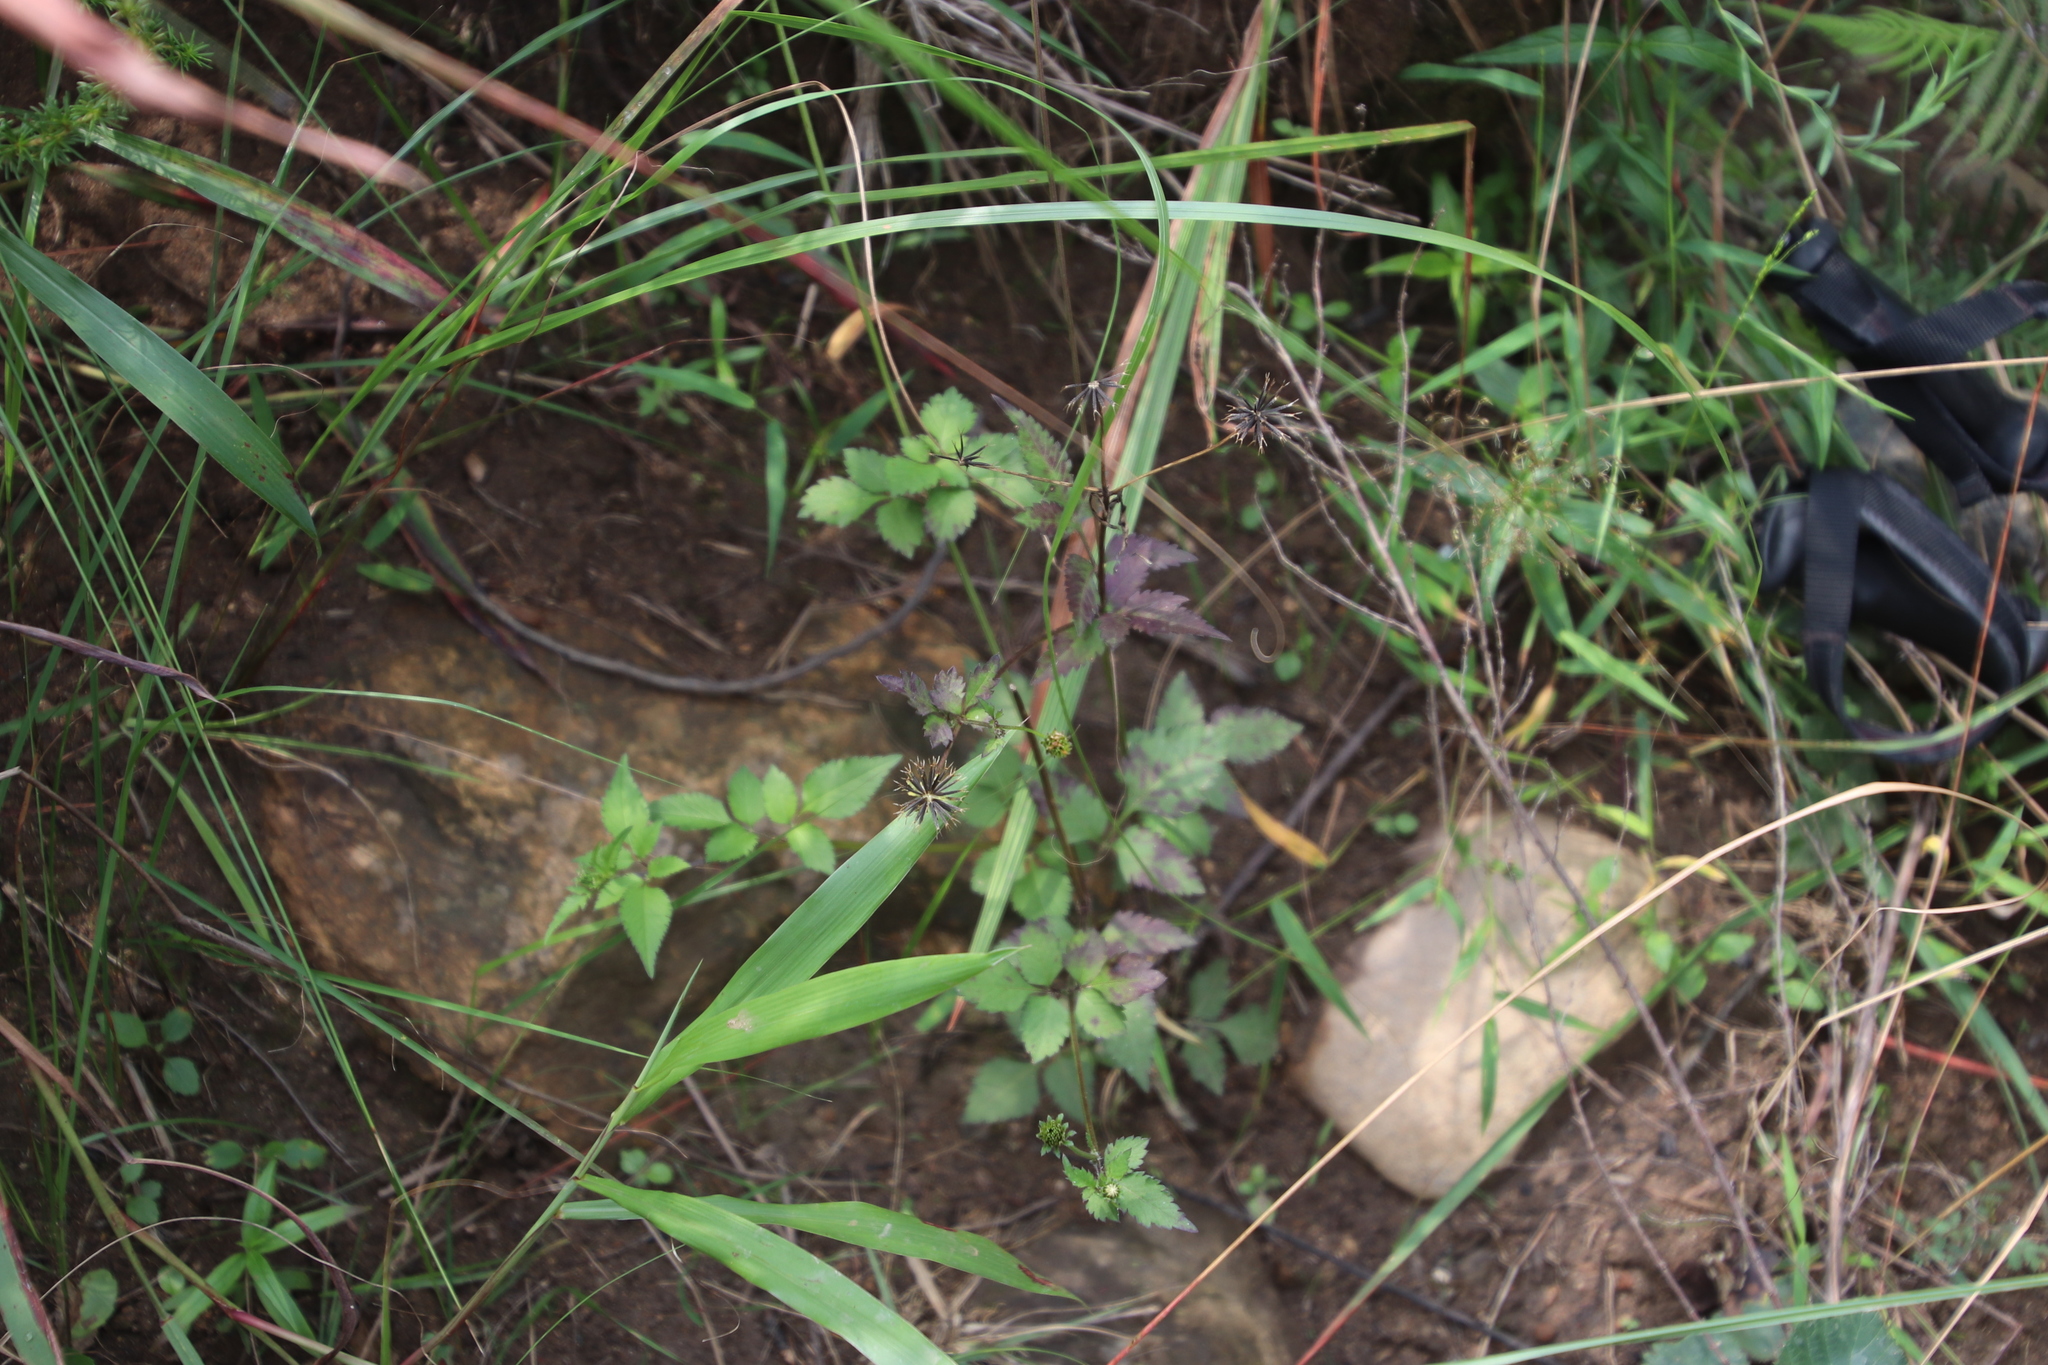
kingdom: Plantae
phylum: Tracheophyta
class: Magnoliopsida
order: Asterales
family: Asteraceae
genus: Bidens
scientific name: Bidens pilosa
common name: Black-jack
